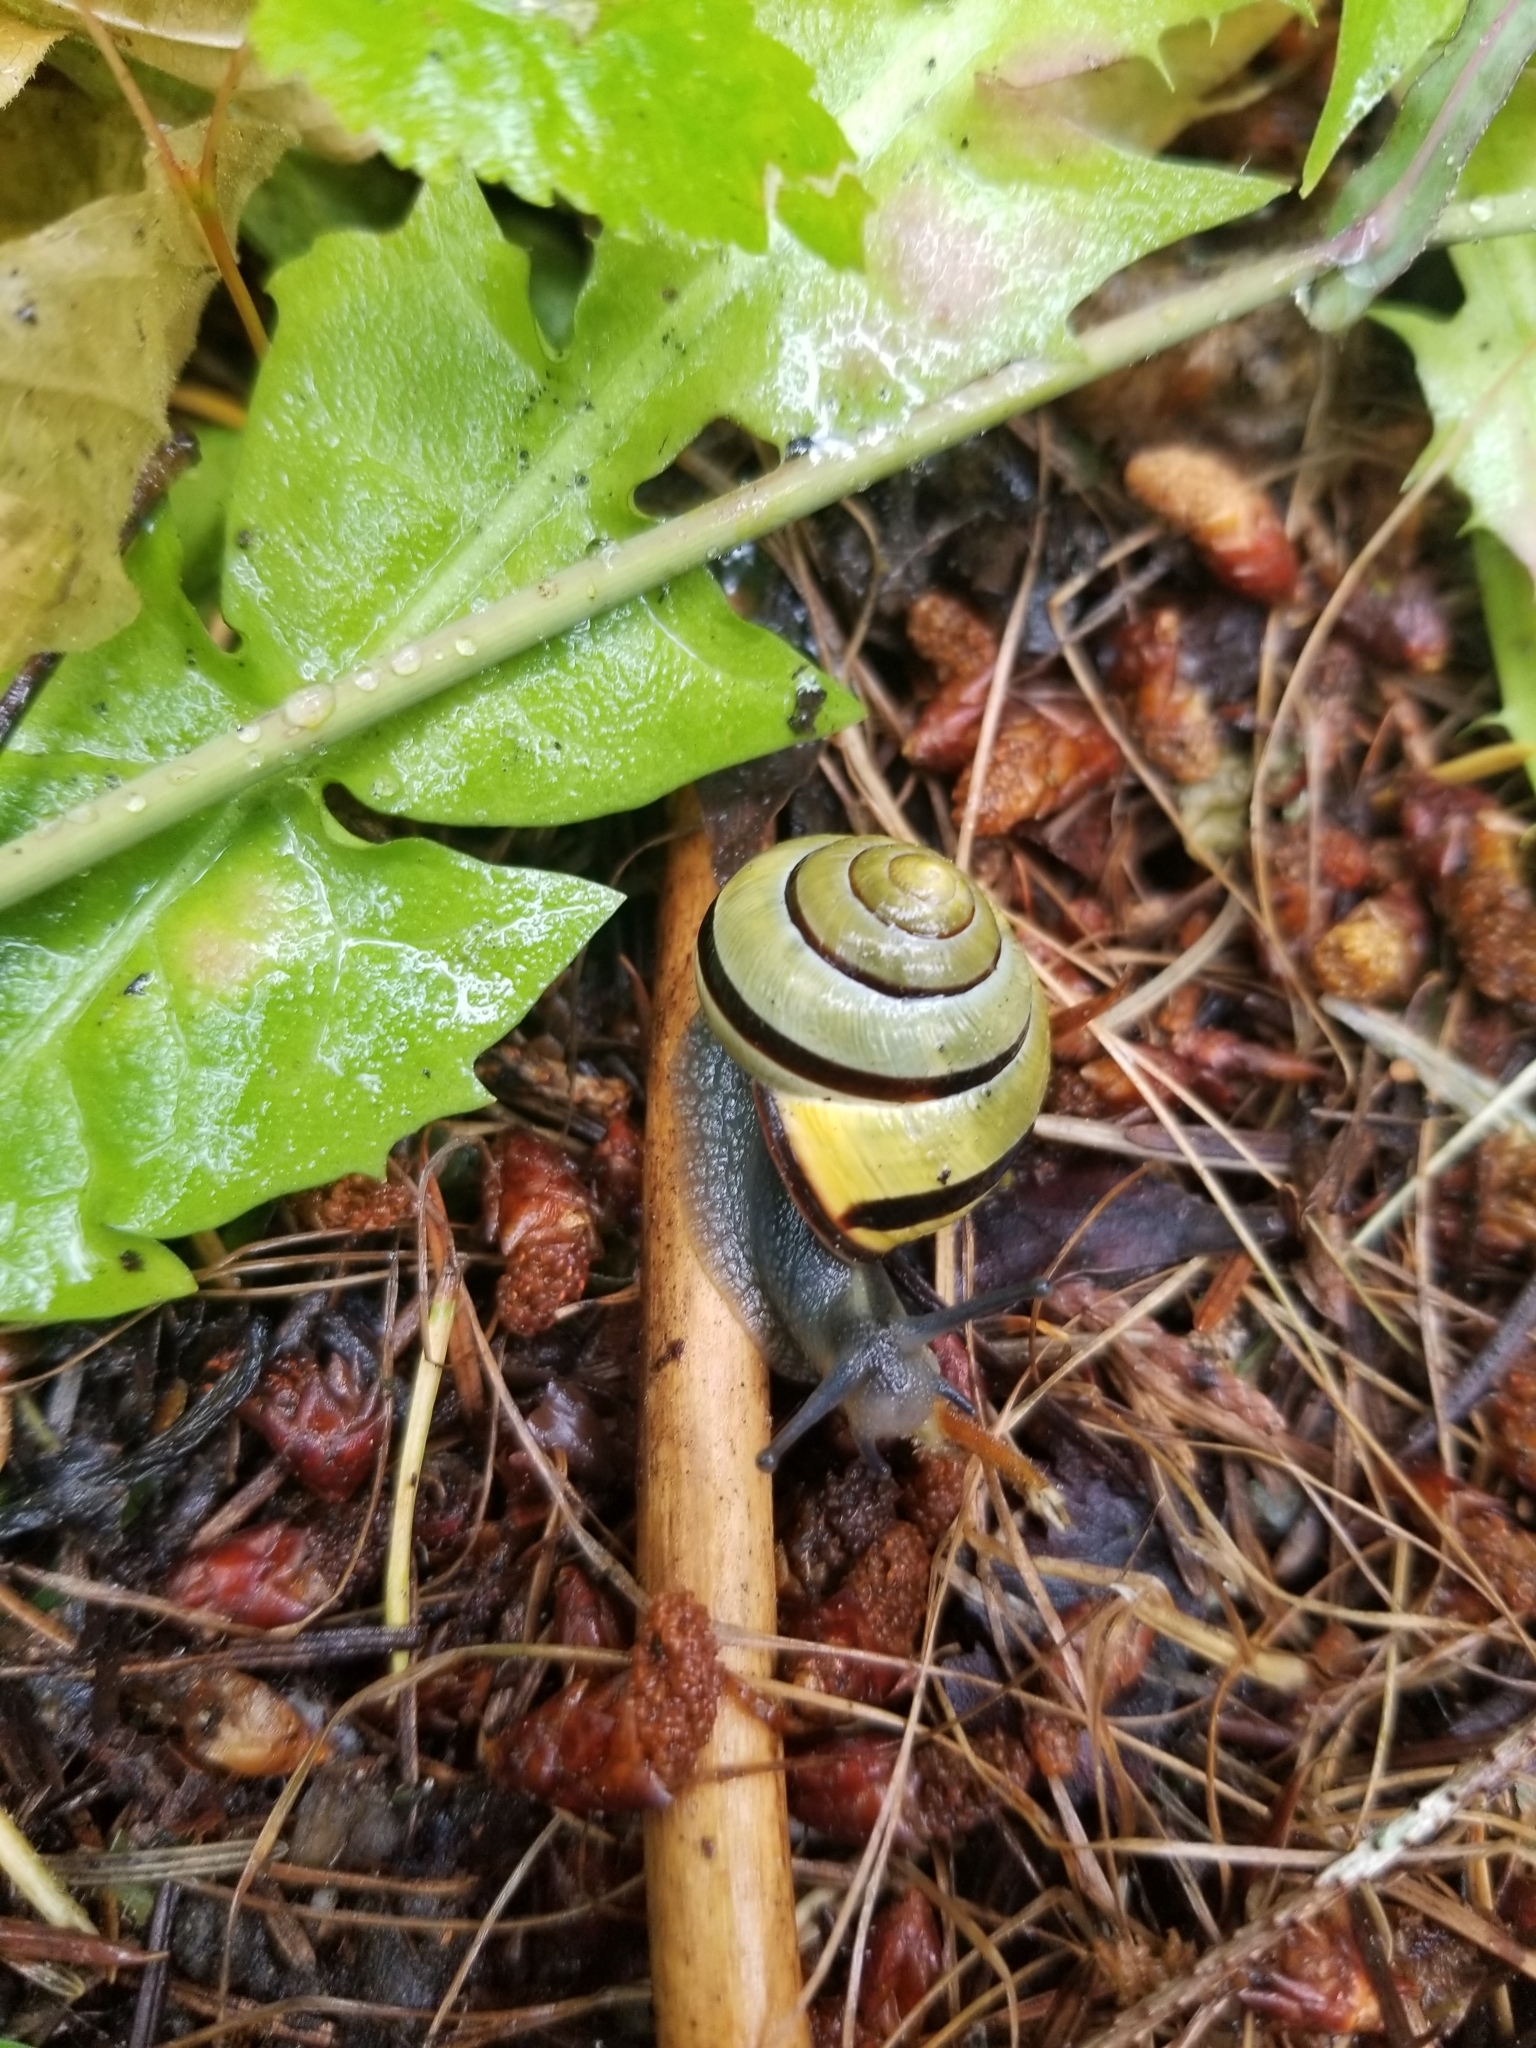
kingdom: Animalia
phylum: Mollusca
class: Gastropoda
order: Stylommatophora
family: Helicidae
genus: Cepaea
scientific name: Cepaea nemoralis
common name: Grovesnail
